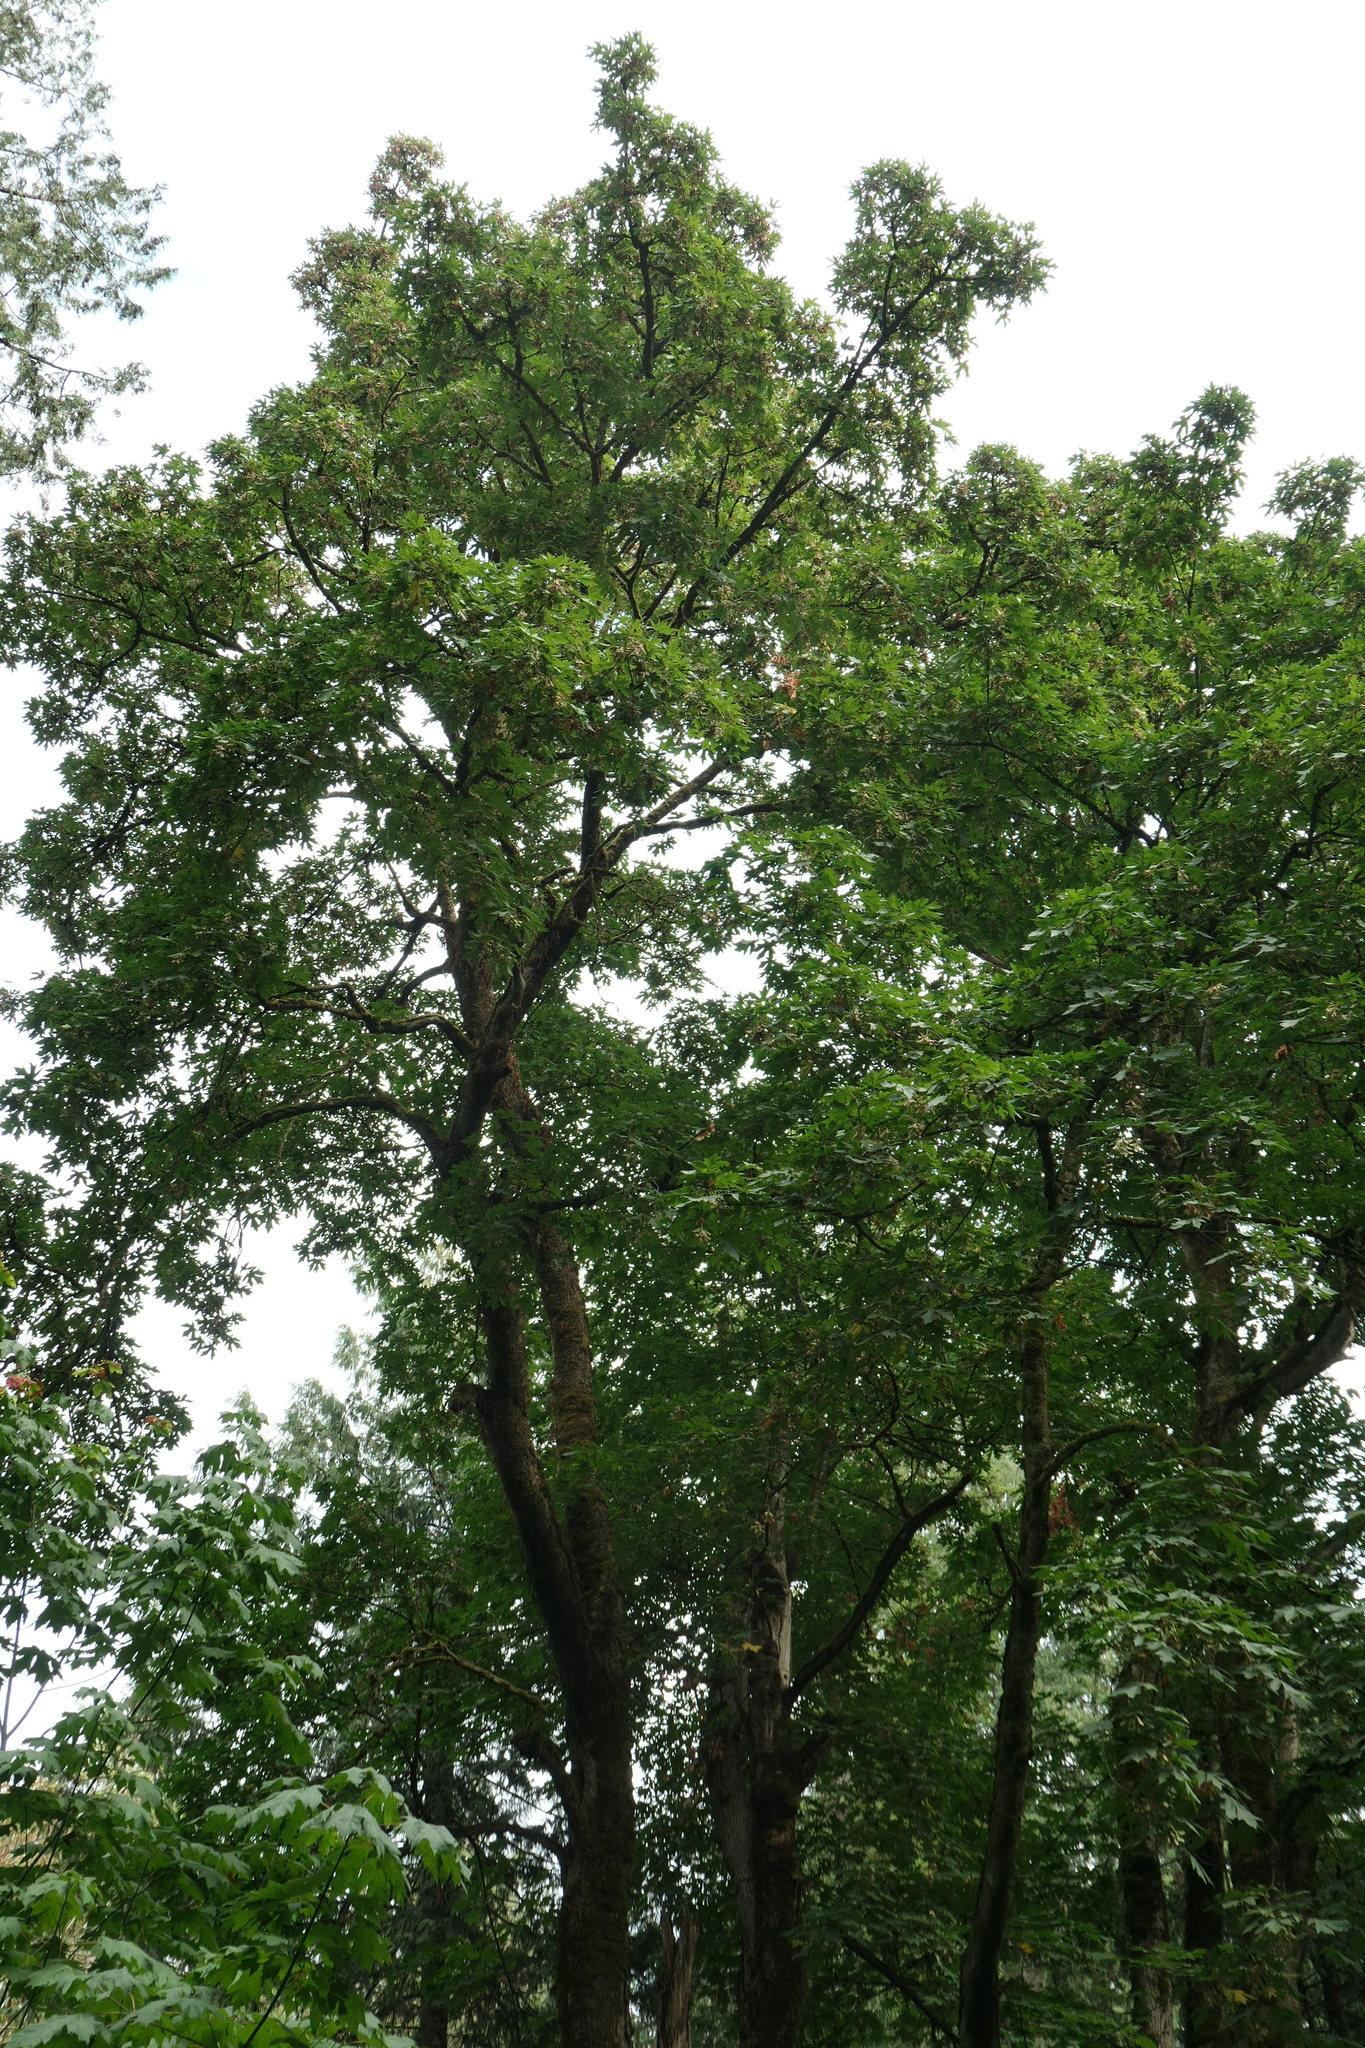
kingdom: Plantae
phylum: Tracheophyta
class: Magnoliopsida
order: Sapindales
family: Sapindaceae
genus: Acer
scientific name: Acer macrophyllum
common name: Oregon maple
